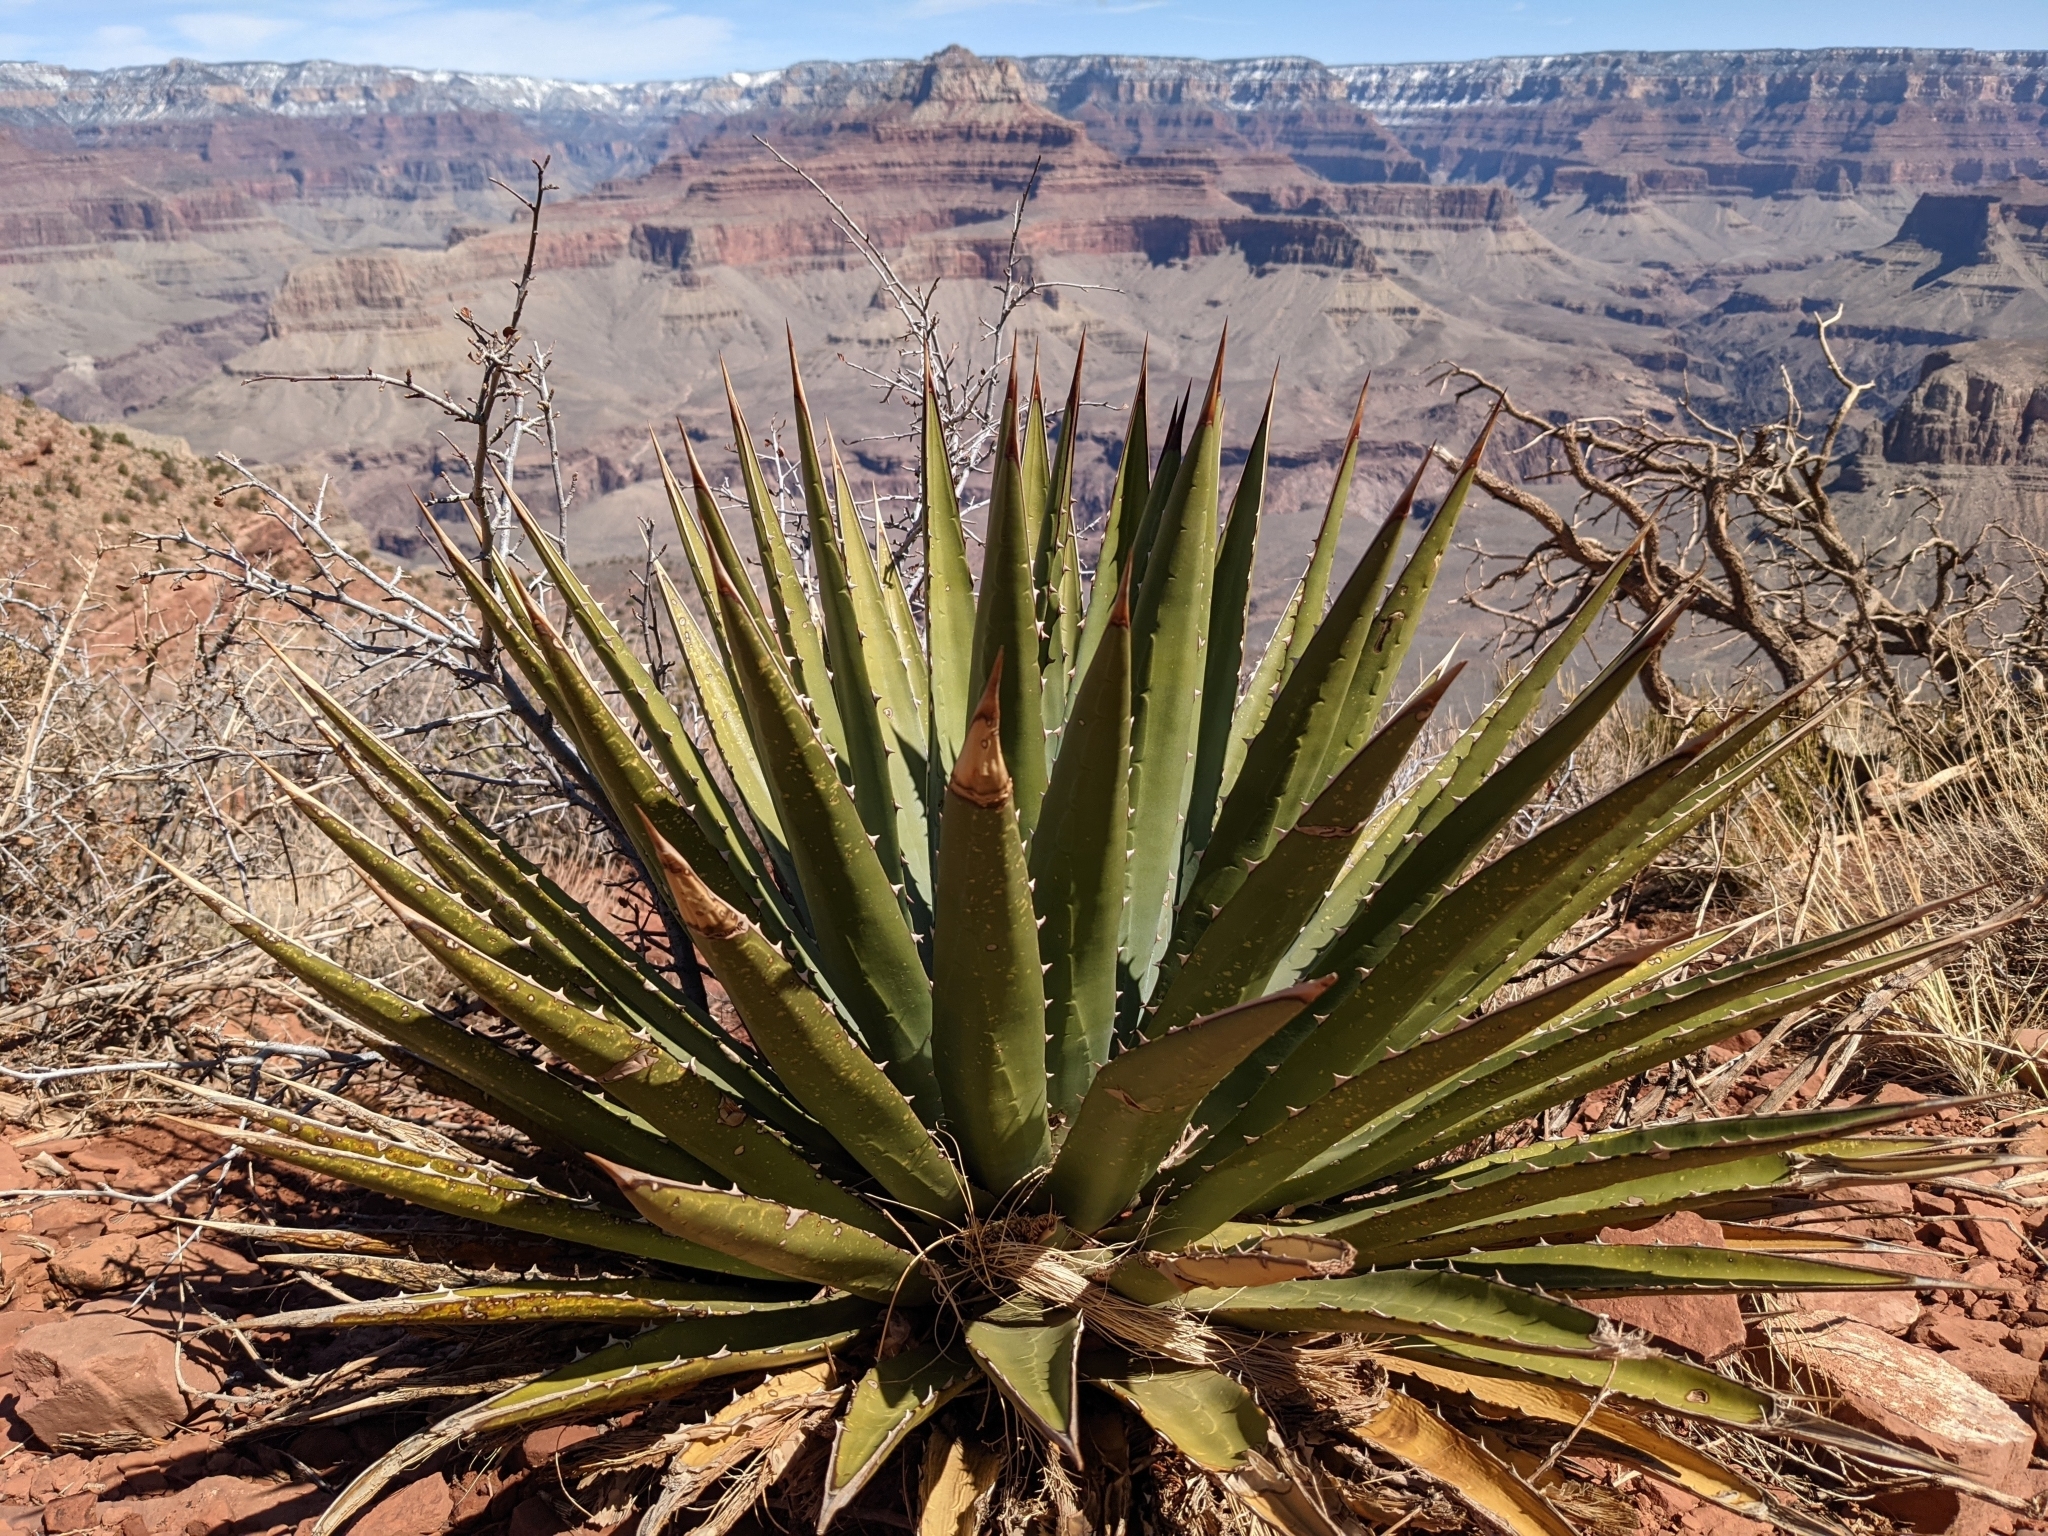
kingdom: Plantae
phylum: Tracheophyta
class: Liliopsida
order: Asparagales
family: Asparagaceae
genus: Agave
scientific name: Agave utahensis
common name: Utah agave
